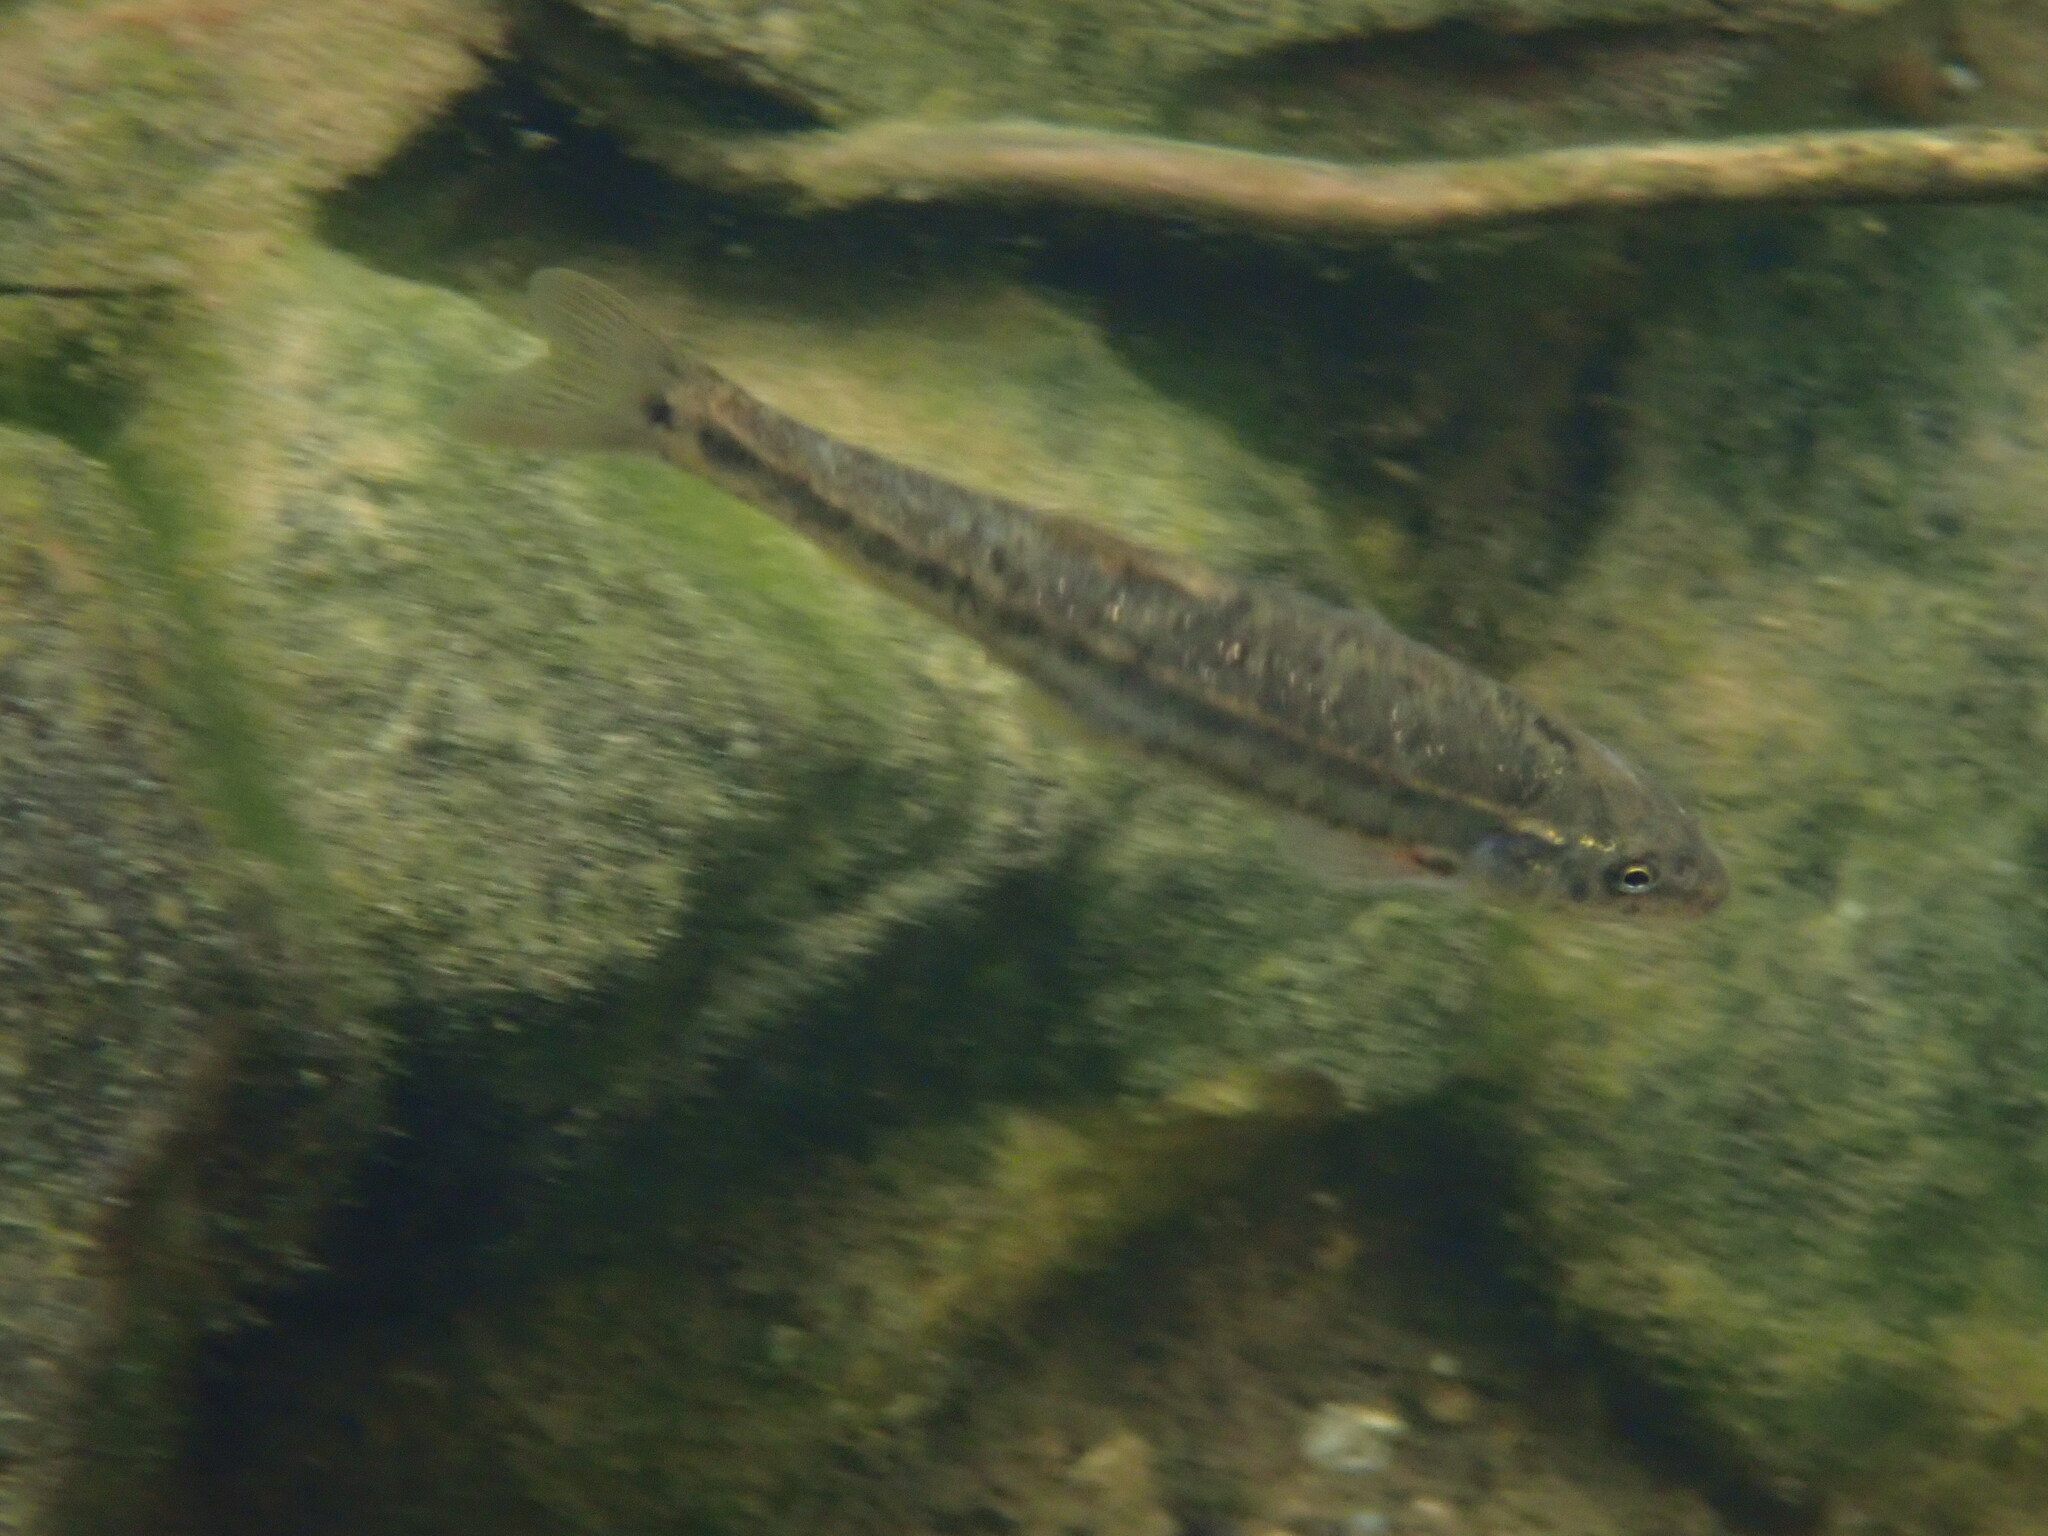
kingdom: Animalia
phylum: Chordata
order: Cypriniformes
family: Cyprinidae
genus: Rhinichthys
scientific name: Rhinichthys osculus
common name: Speckled dace
